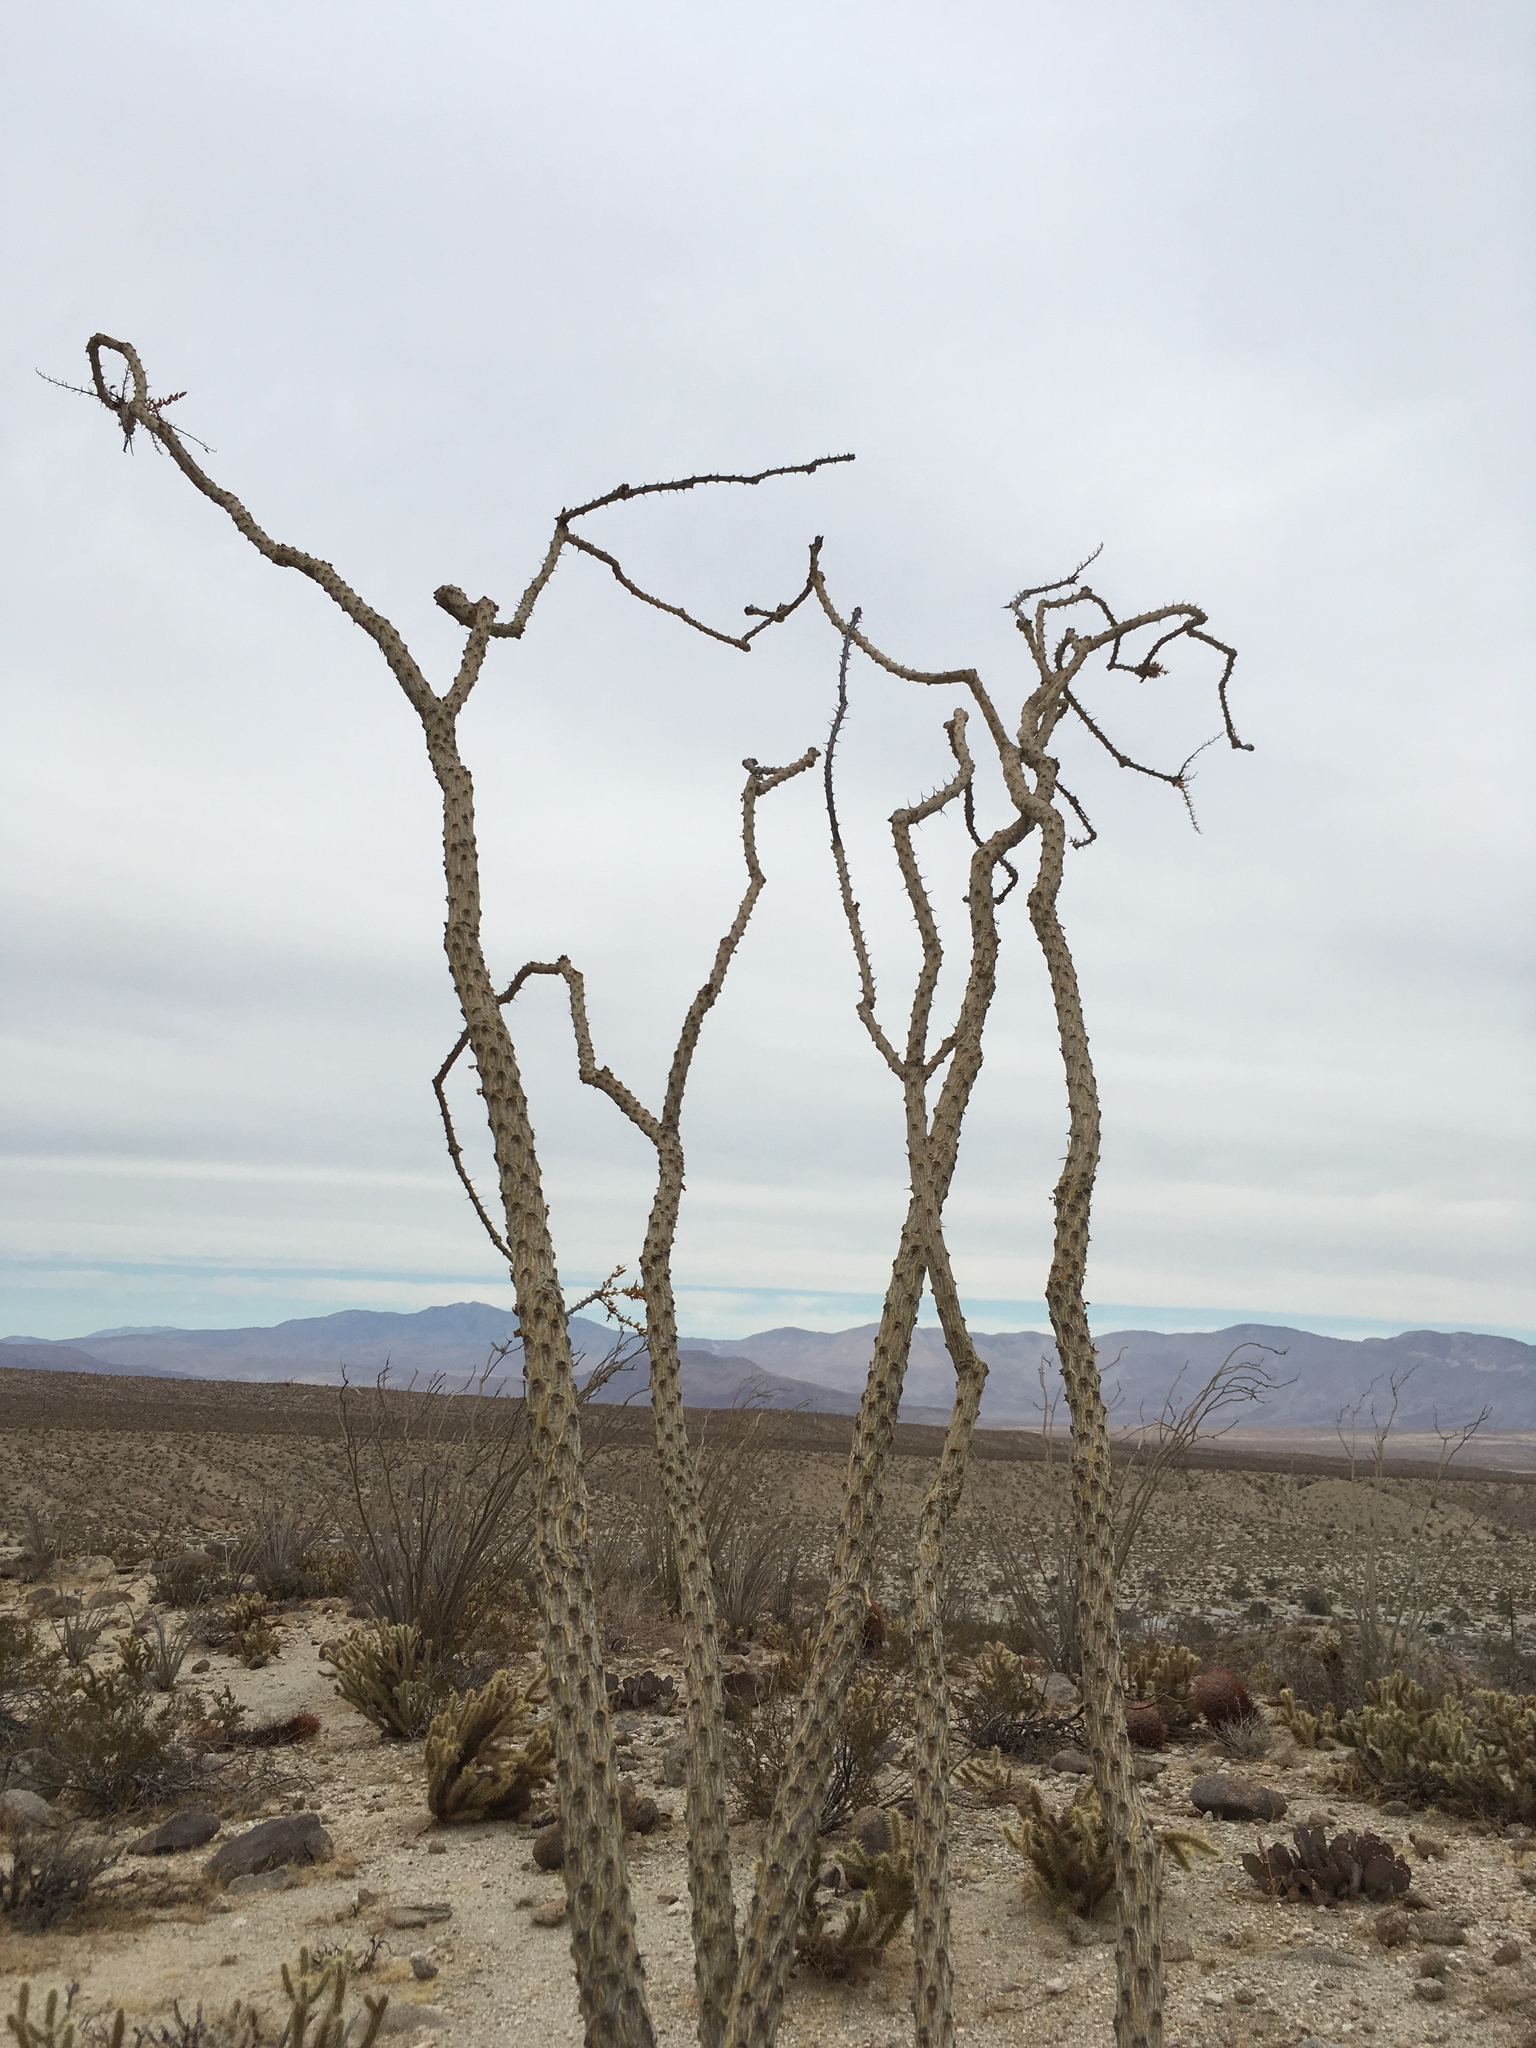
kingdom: Plantae
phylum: Tracheophyta
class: Magnoliopsida
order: Ericales
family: Fouquieriaceae
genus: Fouquieria
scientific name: Fouquieria splendens
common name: Vine-cactus
